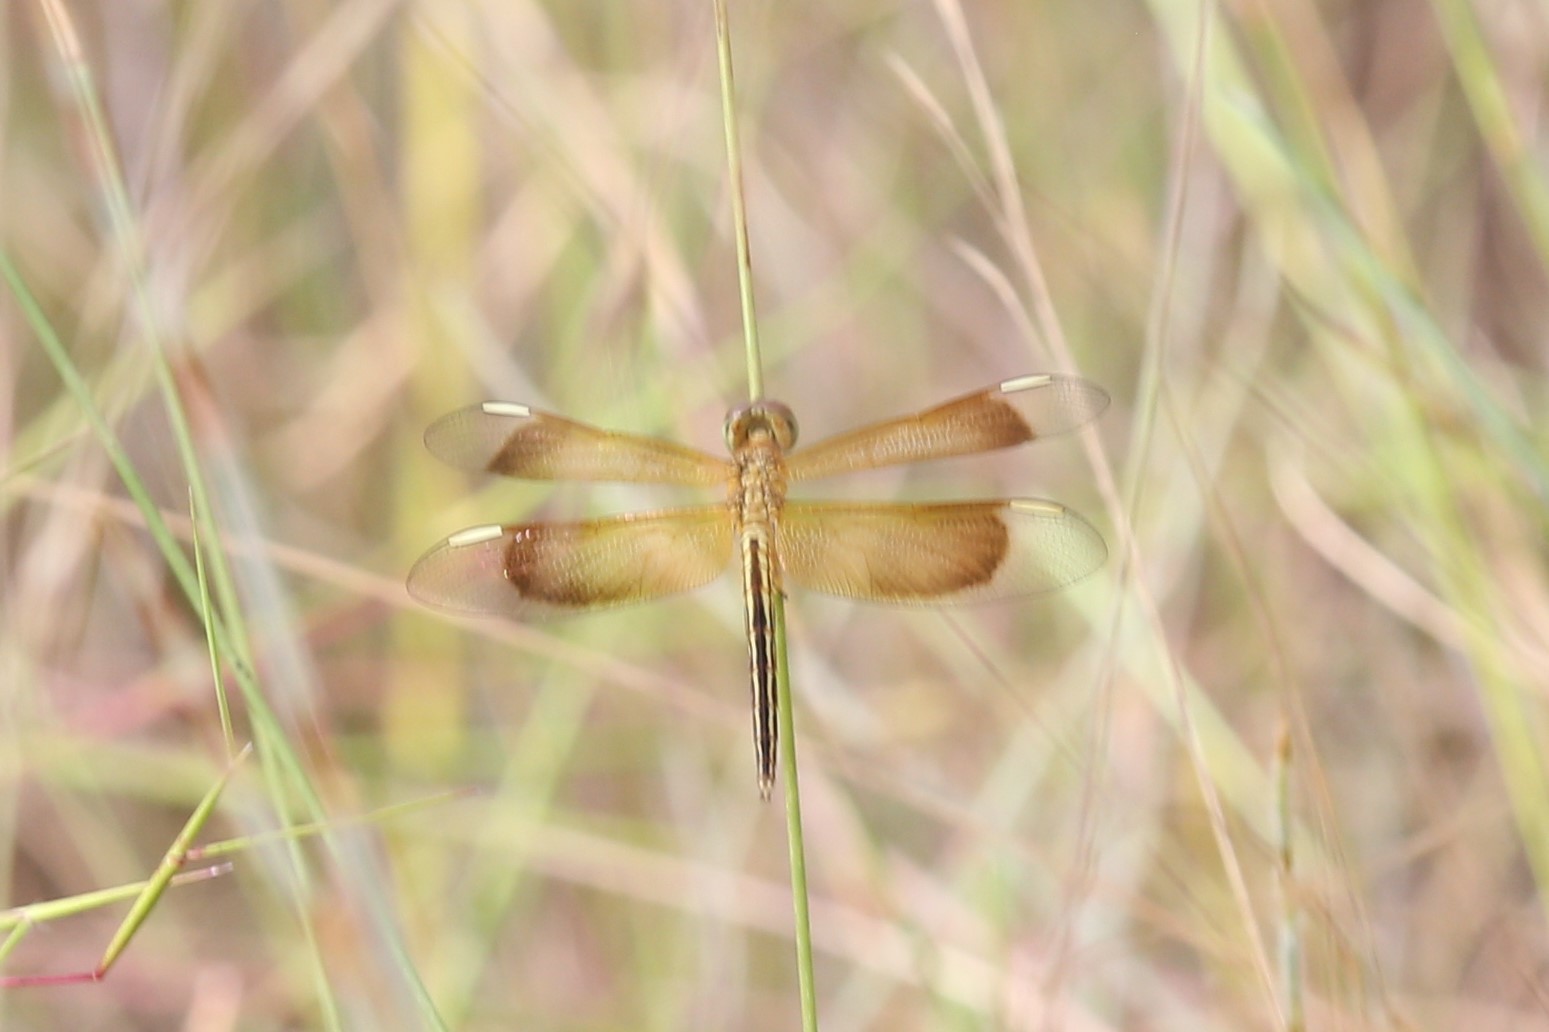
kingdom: Animalia
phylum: Arthropoda
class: Insecta
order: Odonata
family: Libellulidae
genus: Neurothemis
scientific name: Neurothemis stigmatizans
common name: Painted grasshawk
